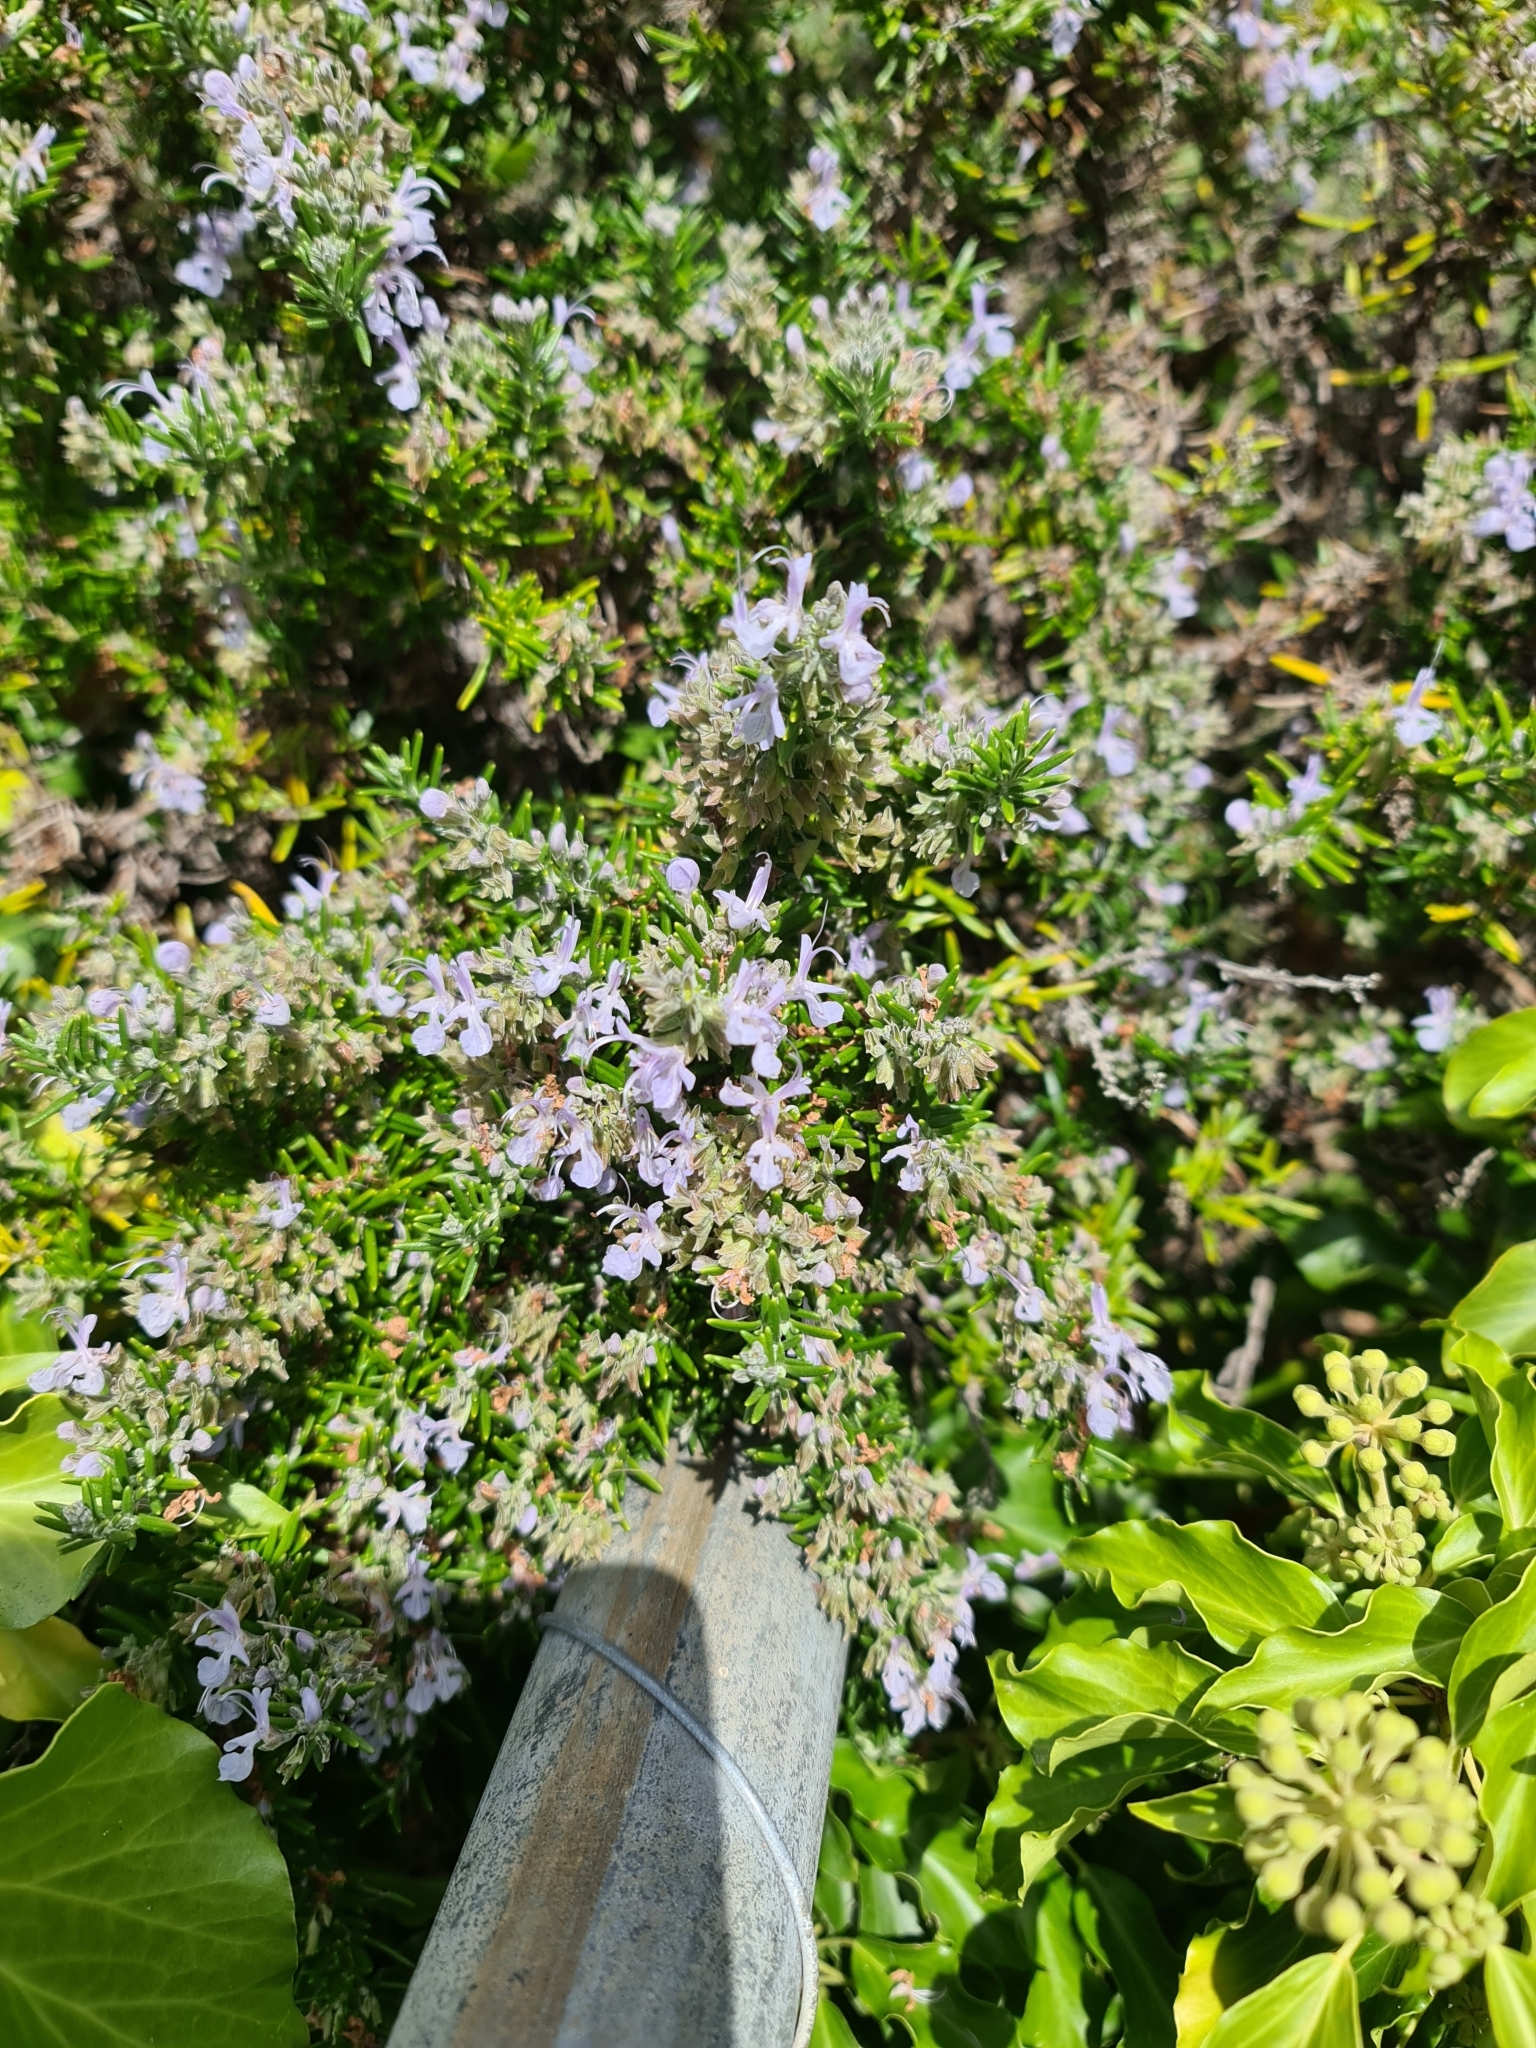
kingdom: Plantae
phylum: Tracheophyta
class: Magnoliopsida
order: Lamiales
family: Lamiaceae
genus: Salvia
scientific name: Salvia rosmarinus
